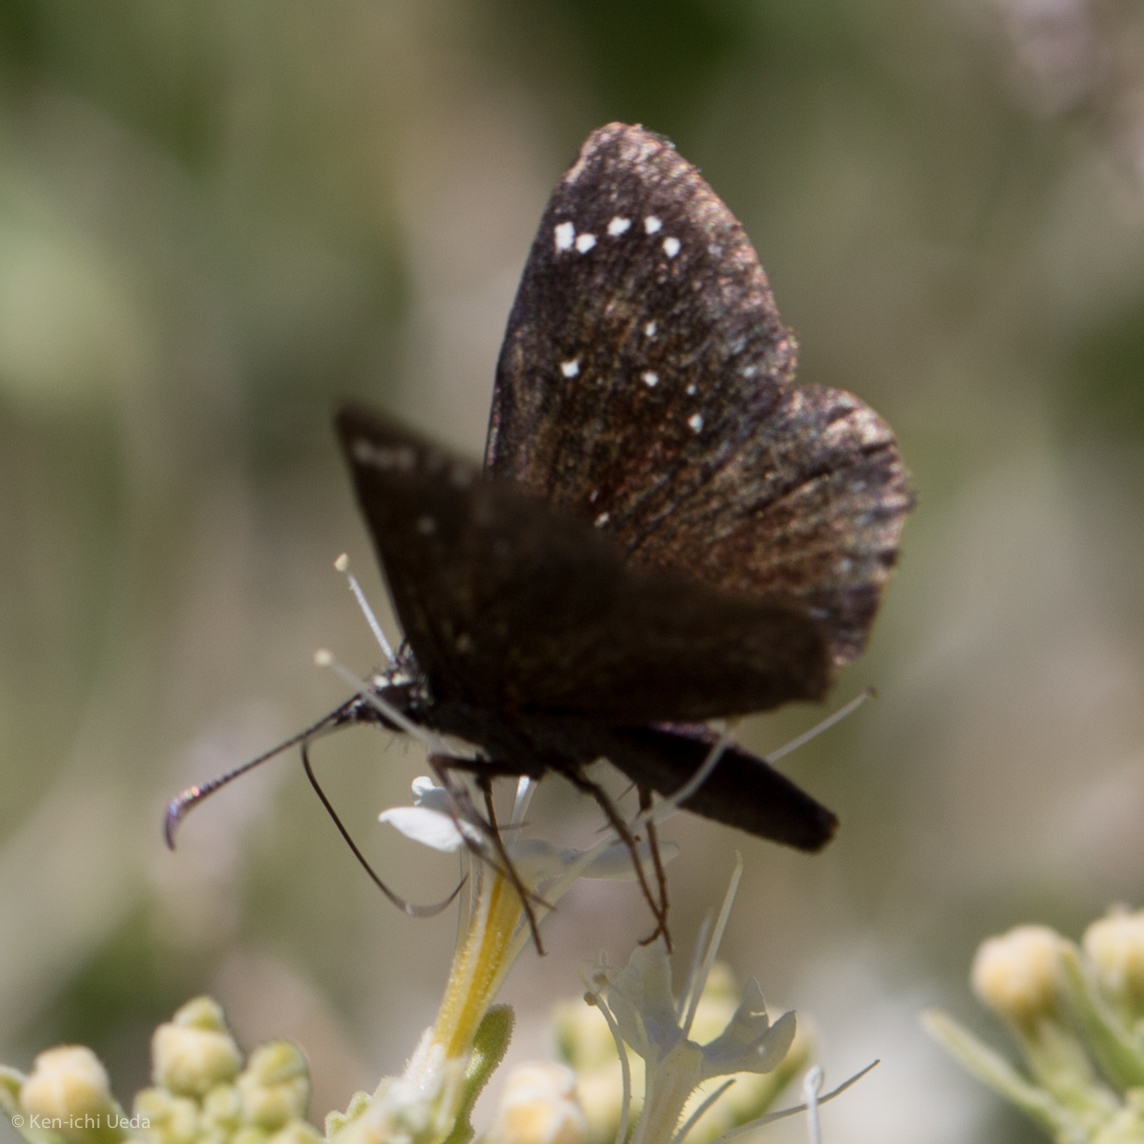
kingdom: Animalia
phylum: Arthropoda
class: Insecta
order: Lepidoptera
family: Hesperiidae
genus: Pholisora
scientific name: Pholisora catullus
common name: Common sootywing
